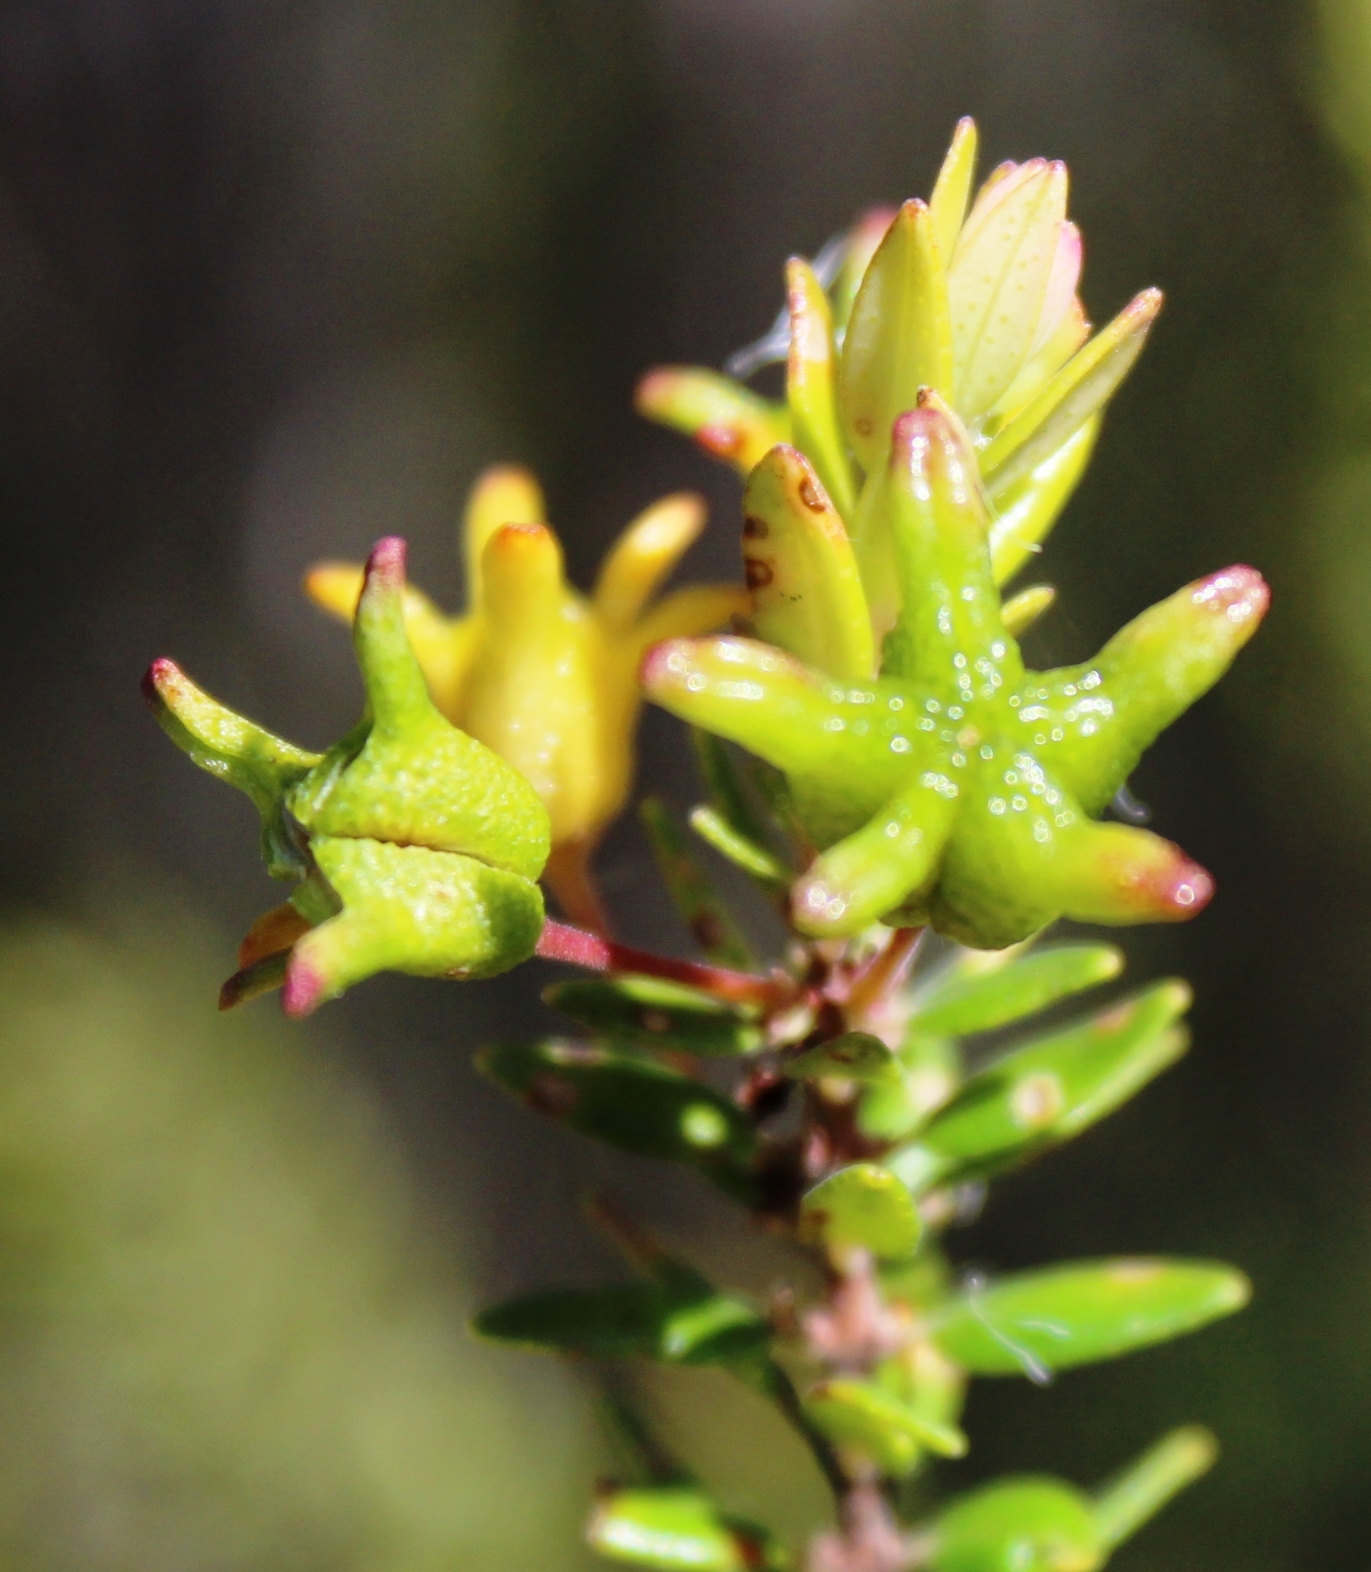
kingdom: Plantae
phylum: Tracheophyta
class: Magnoliopsida
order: Sapindales
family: Rutaceae
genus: Agathosma
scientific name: Agathosma ovata
